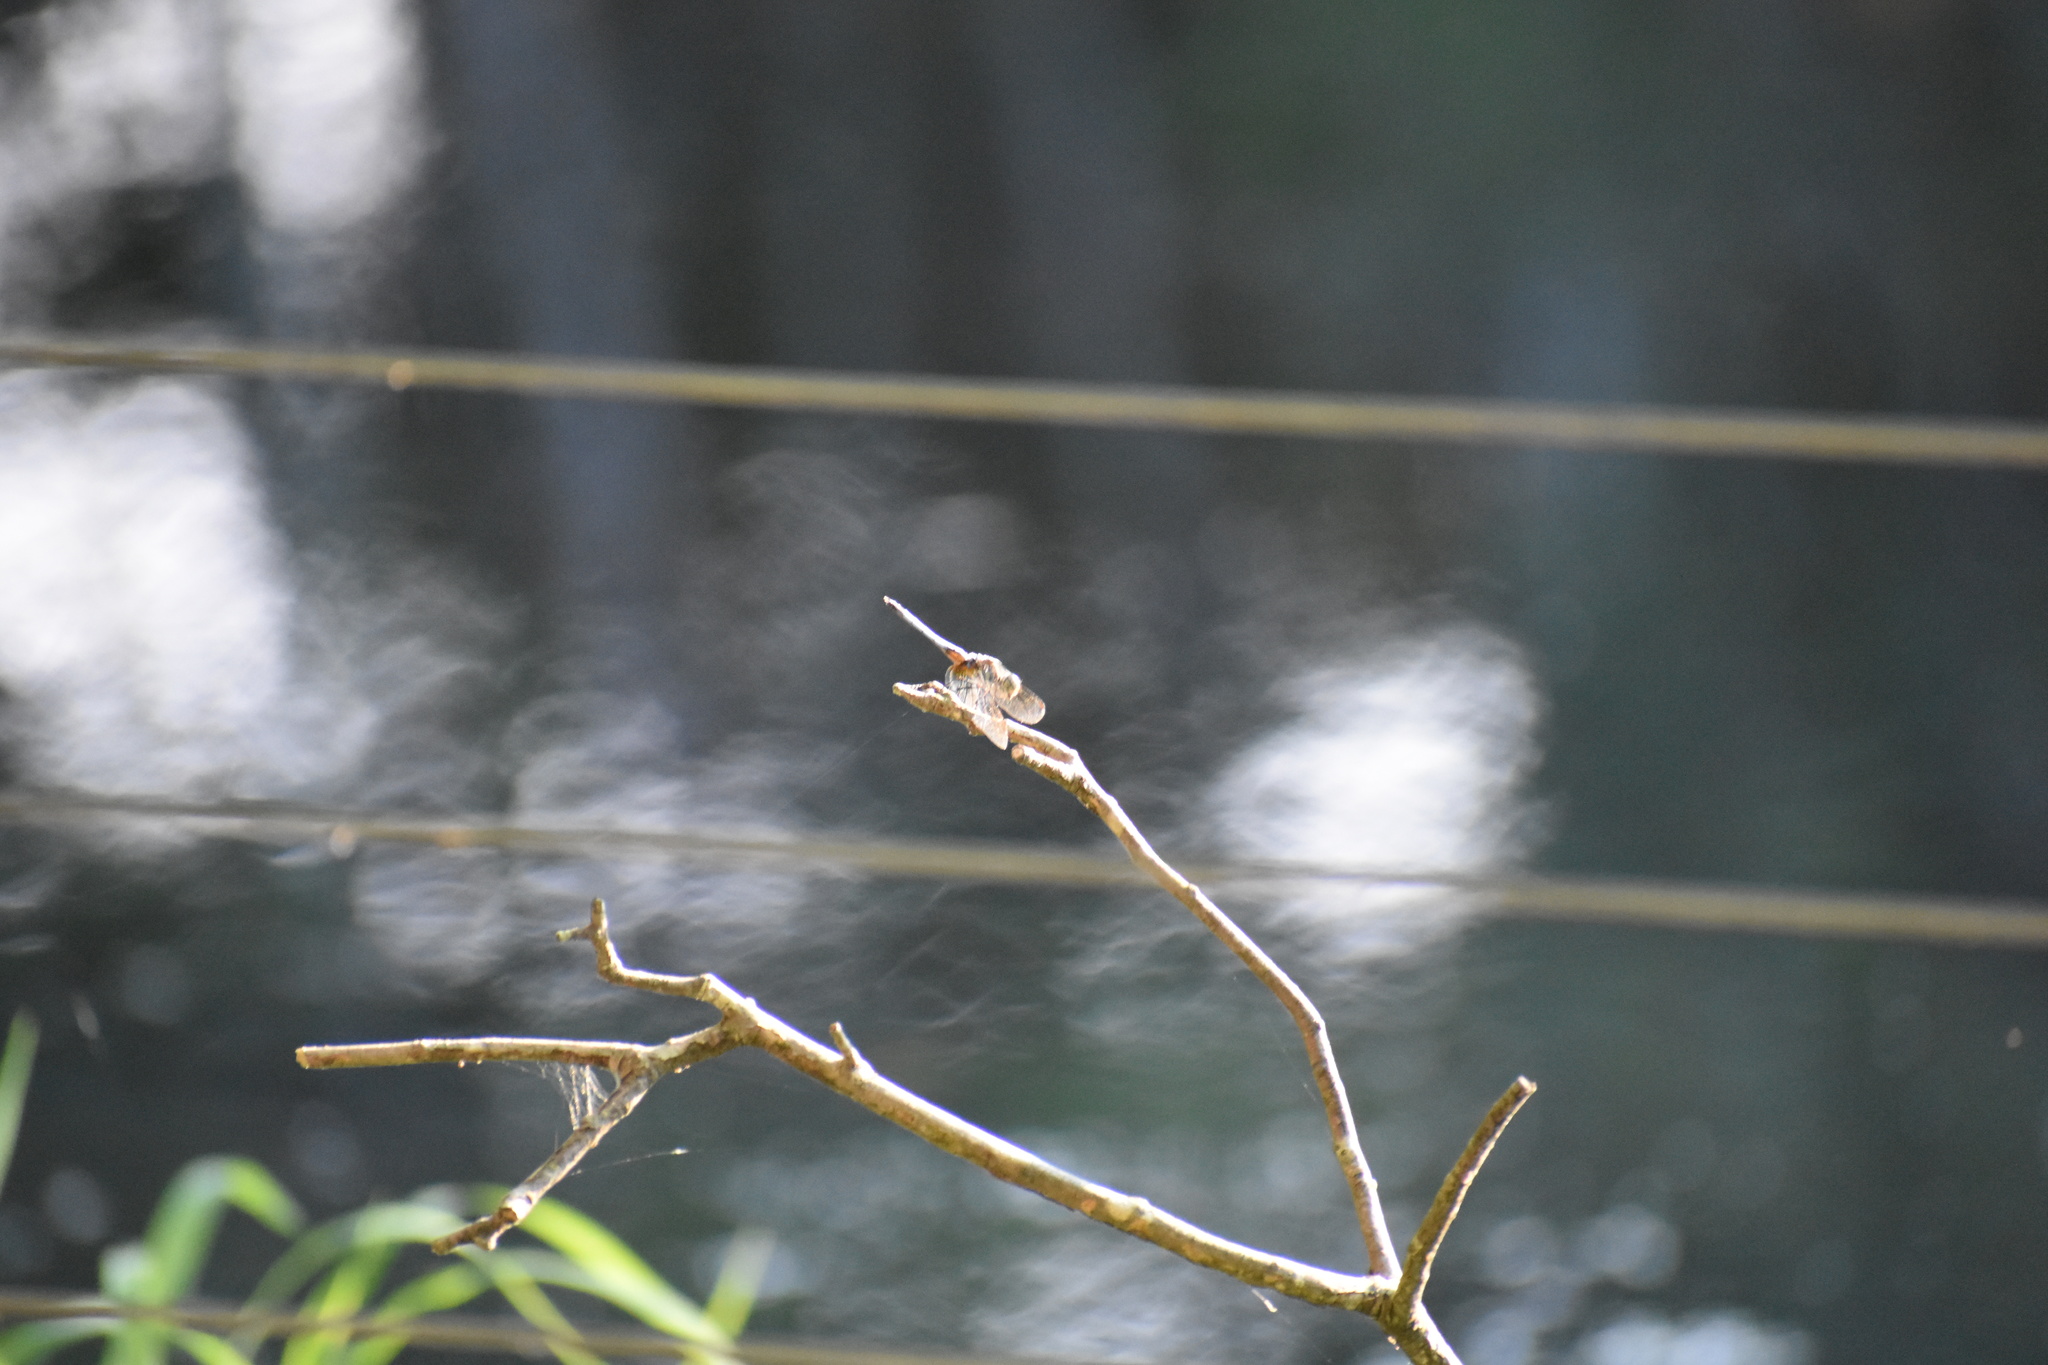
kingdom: Animalia
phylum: Arthropoda
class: Insecta
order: Odonata
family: Libellulidae
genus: Pachydiplax
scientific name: Pachydiplax longipennis
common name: Blue dasher
